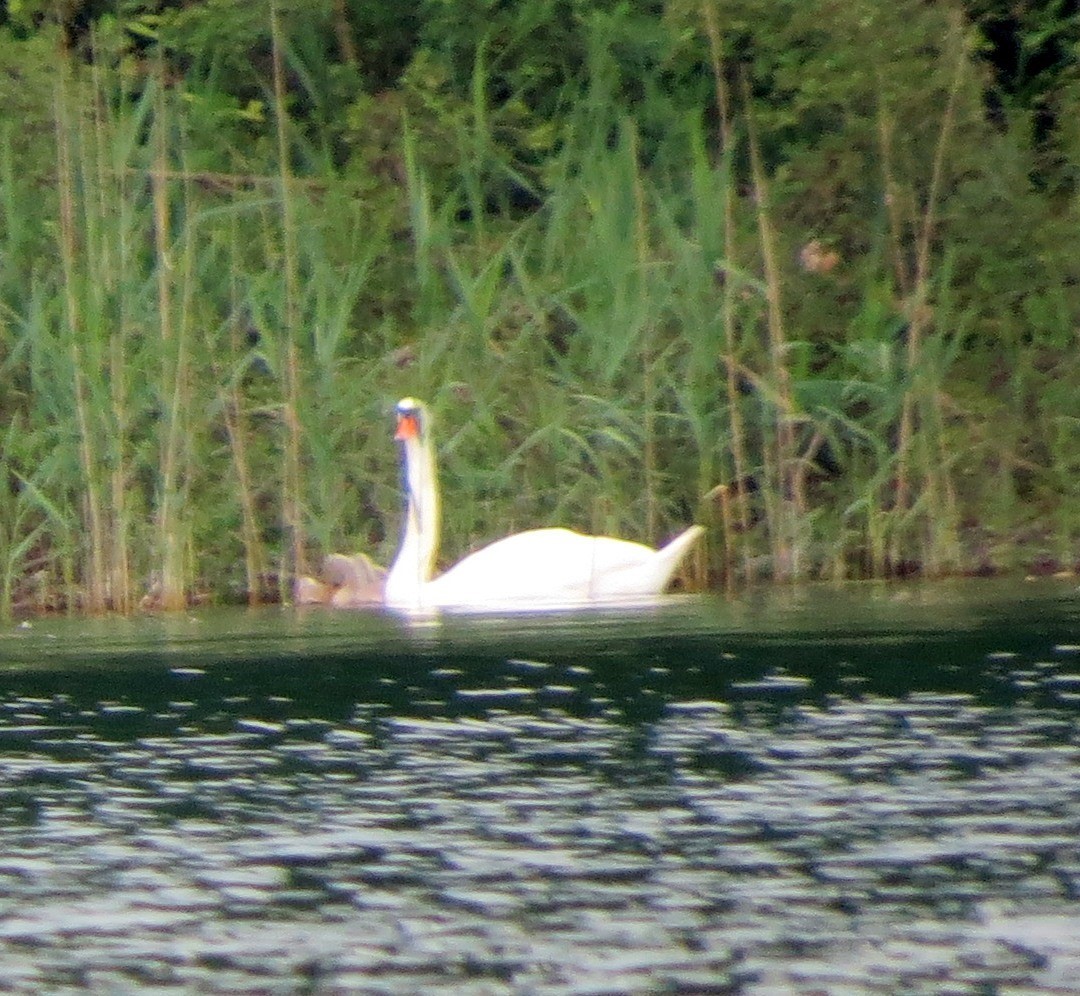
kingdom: Animalia
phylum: Chordata
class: Aves
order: Anseriformes
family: Anatidae
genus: Cygnus
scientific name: Cygnus olor
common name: Mute swan
